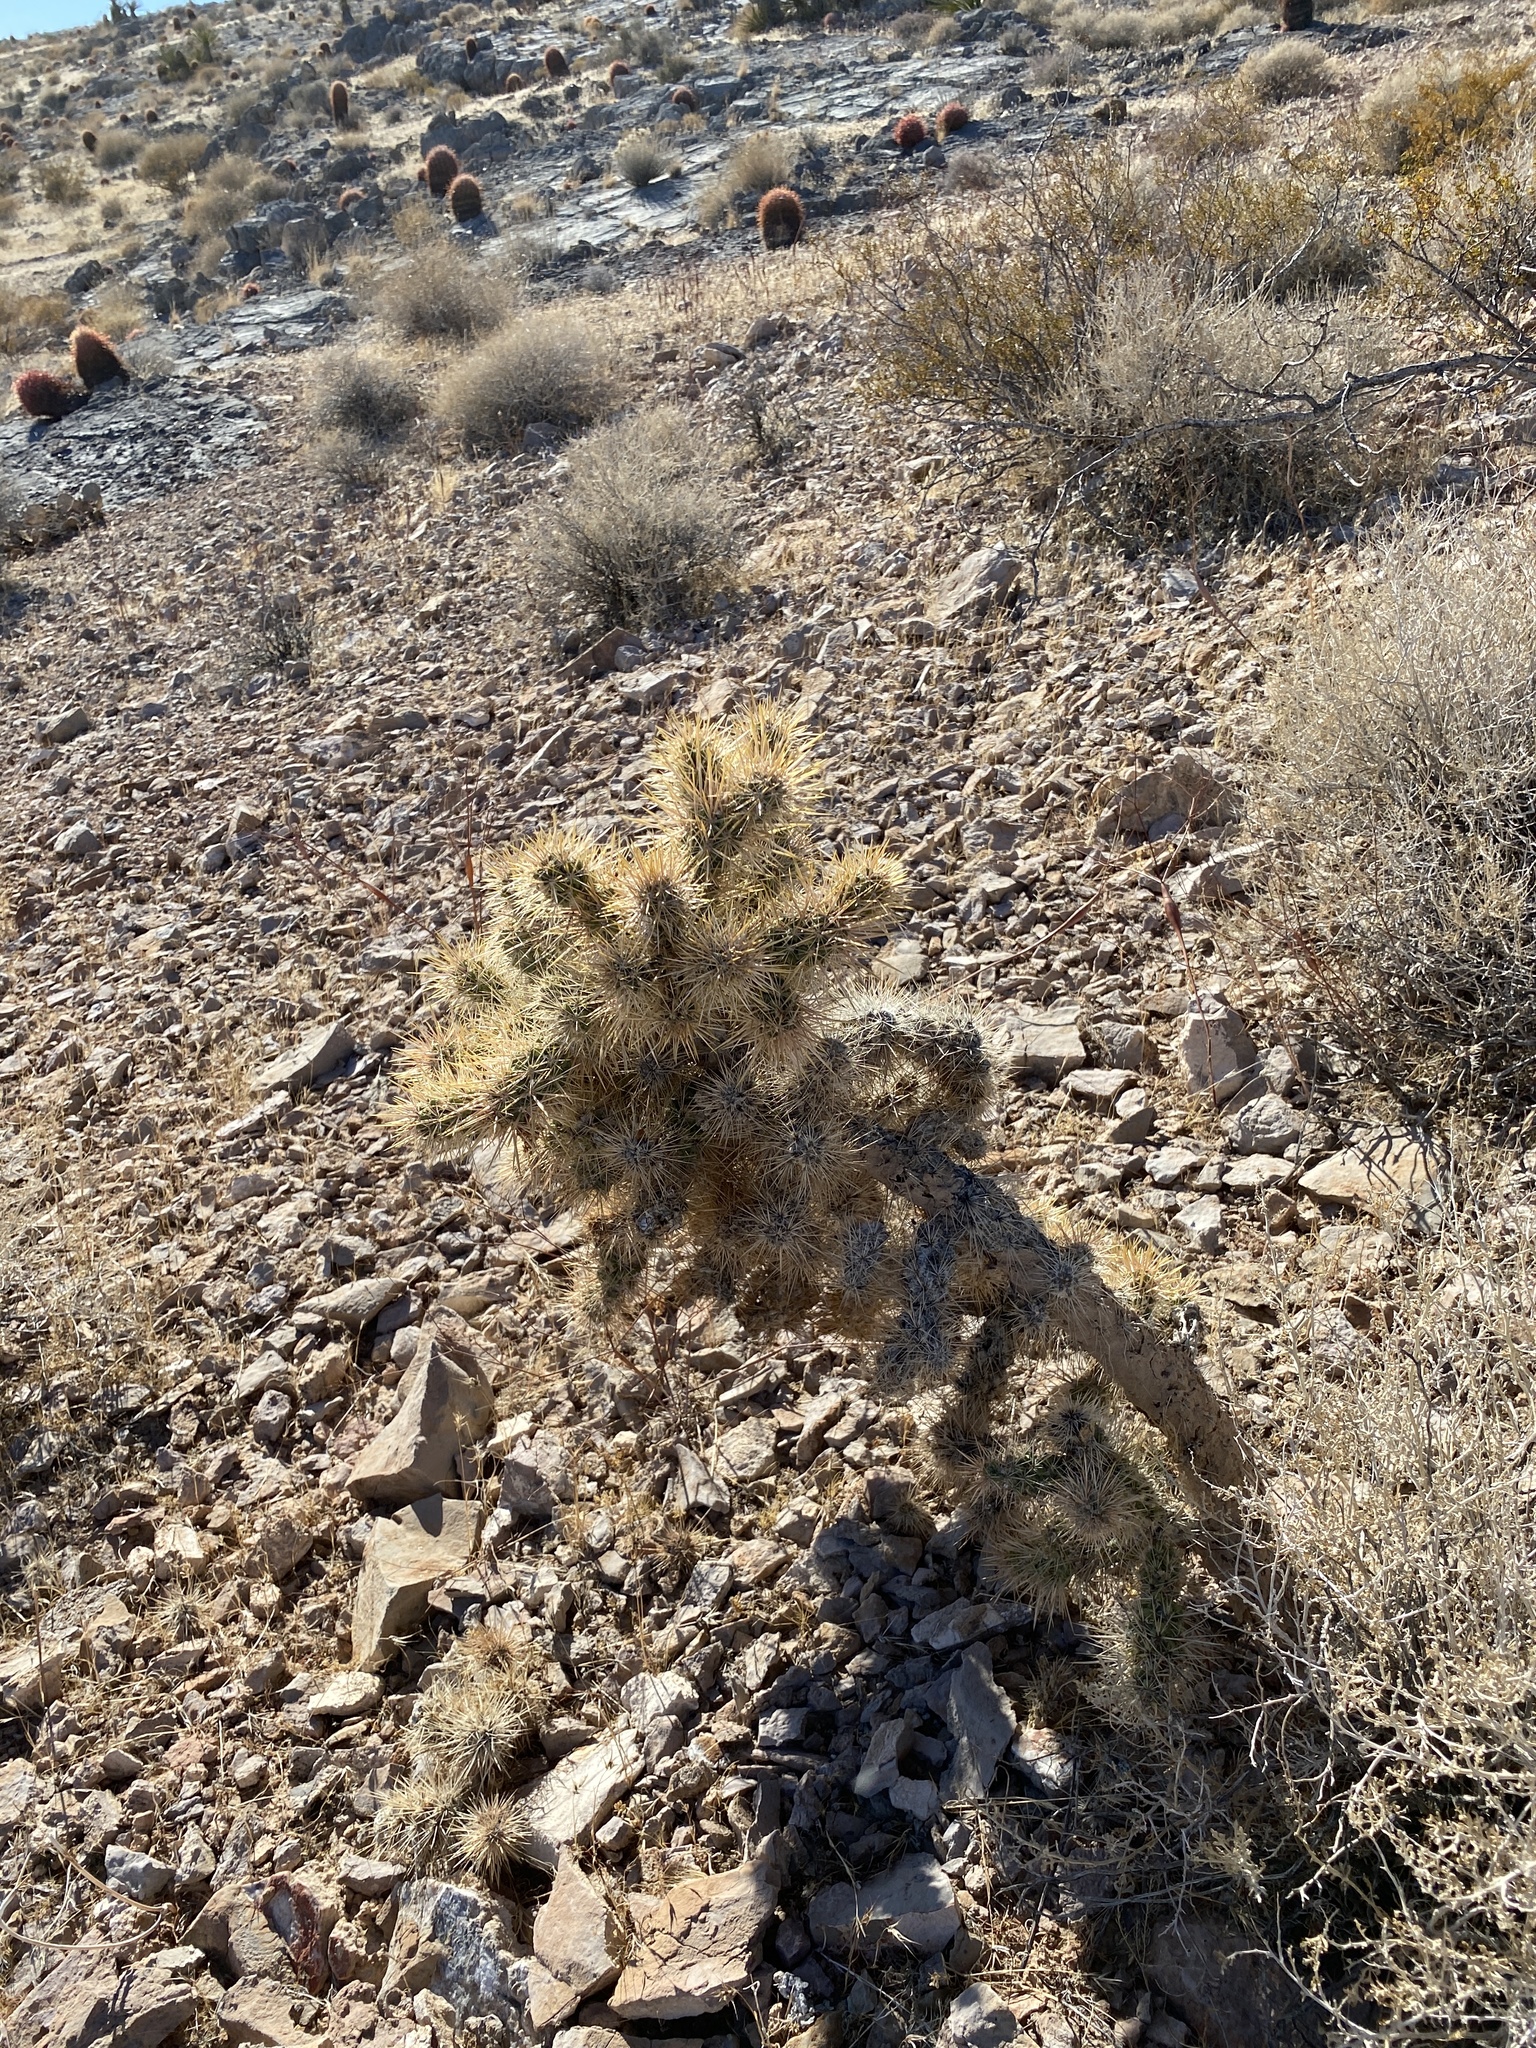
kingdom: Plantae
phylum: Tracheophyta
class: Magnoliopsida
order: Caryophyllales
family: Cactaceae
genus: Cylindropuntia
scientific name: Cylindropuntia echinocarpa
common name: Ground cholla
